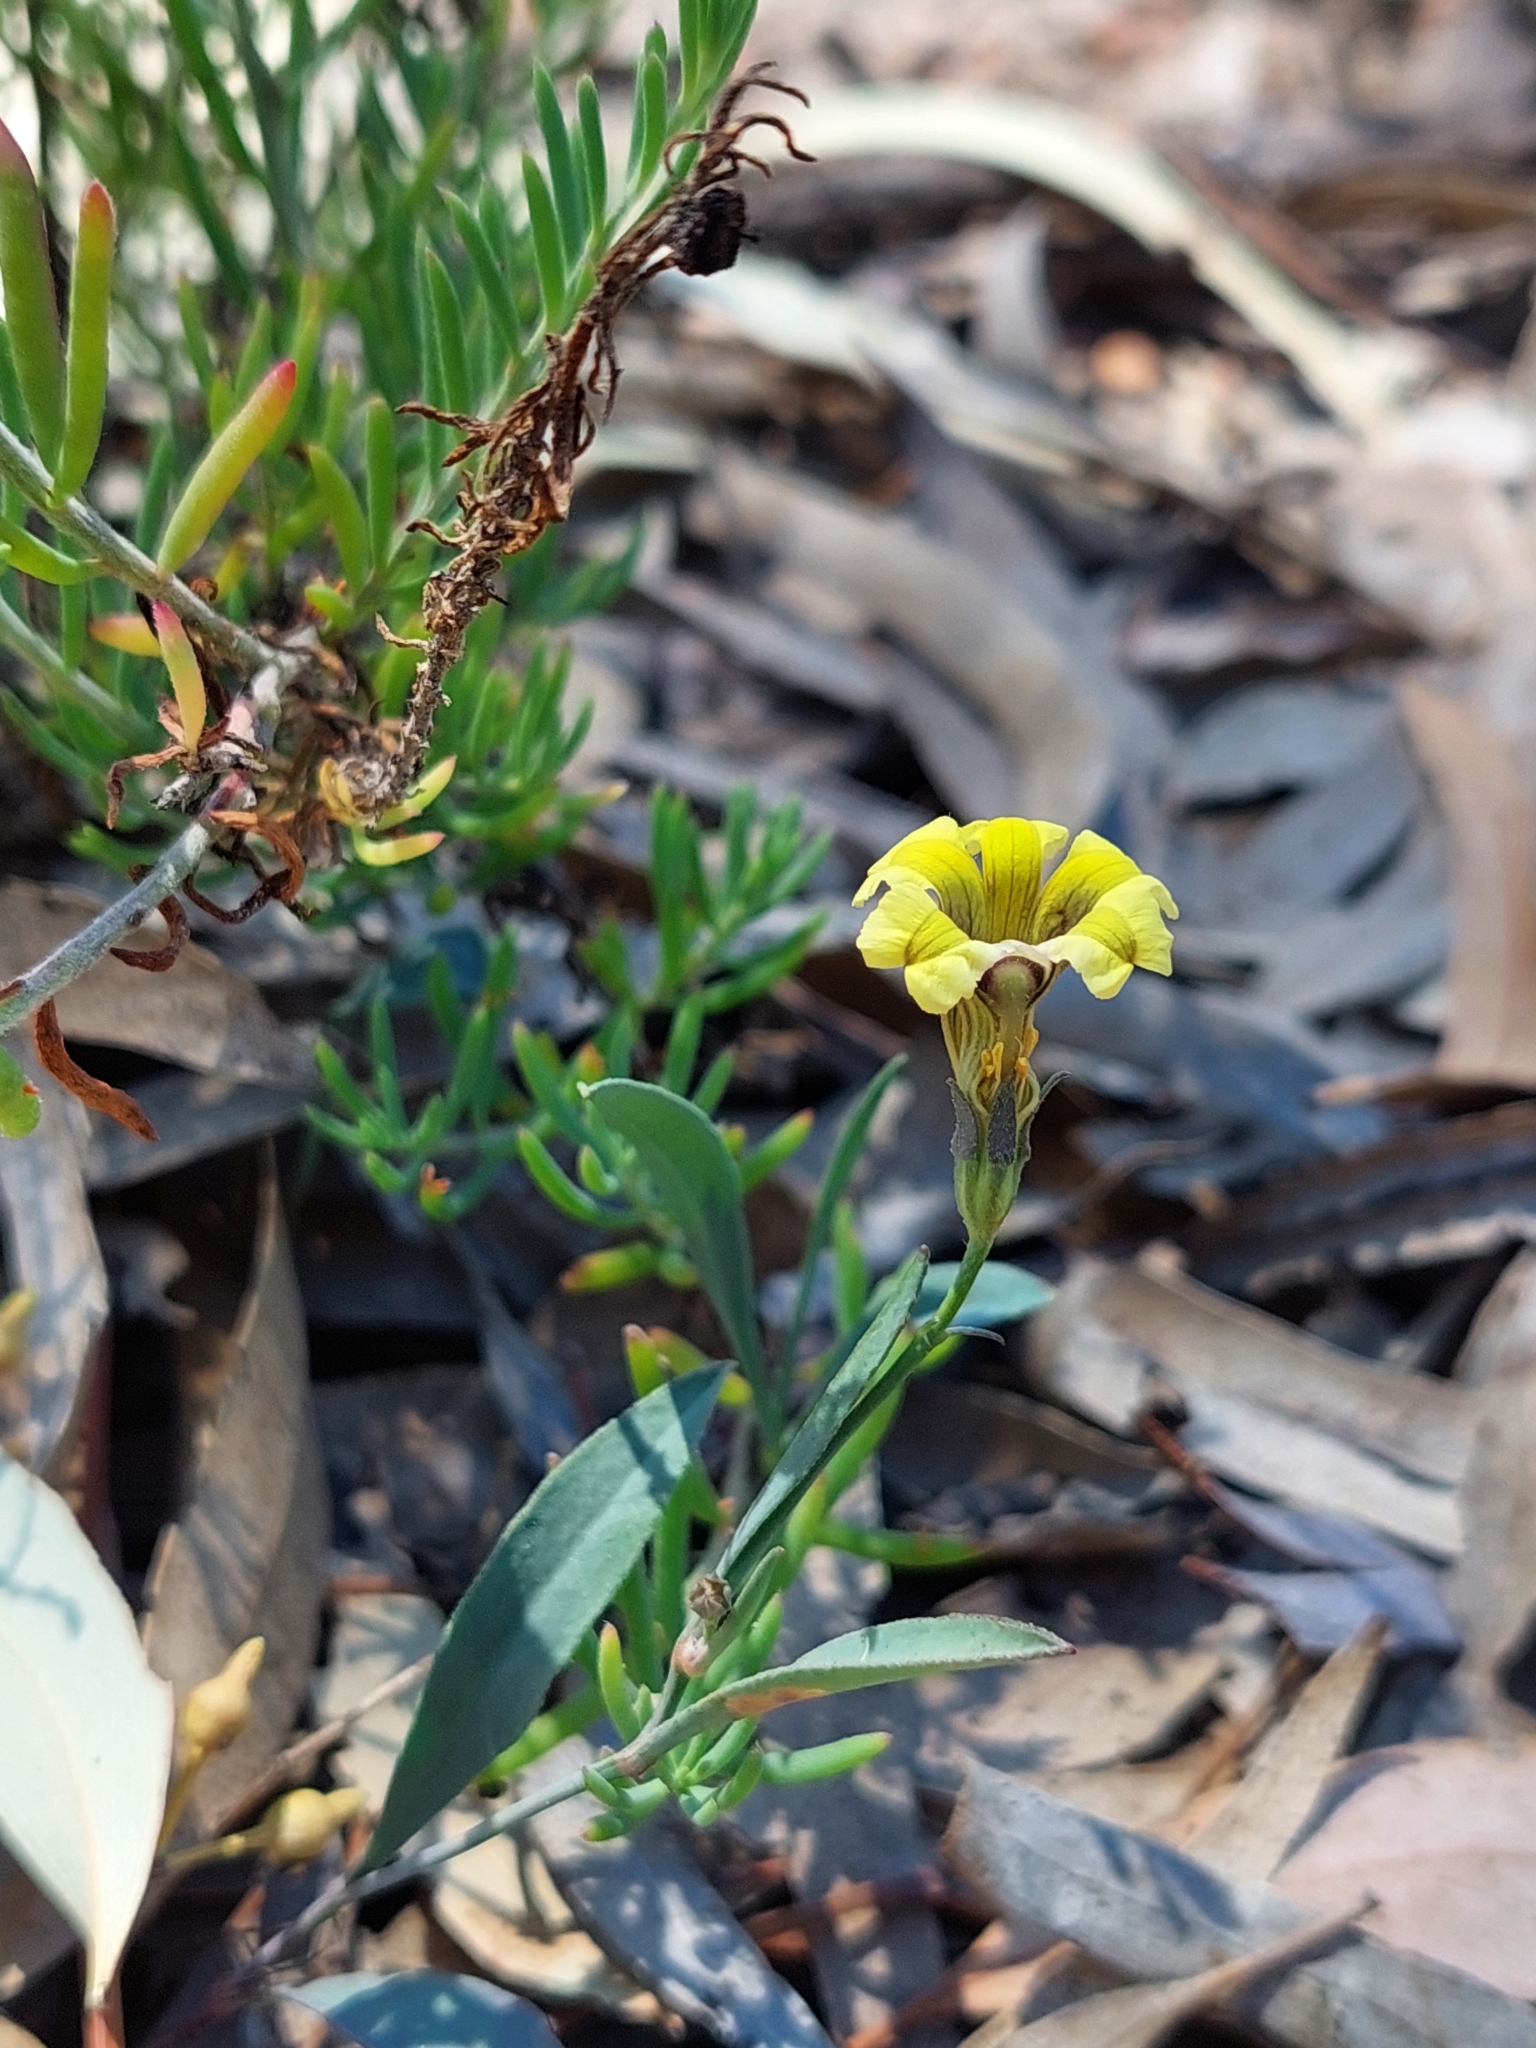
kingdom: Plantae
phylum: Tracheophyta
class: Magnoliopsida
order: Asterales
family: Goodeniaceae
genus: Goodenia
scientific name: Goodenia glauca
